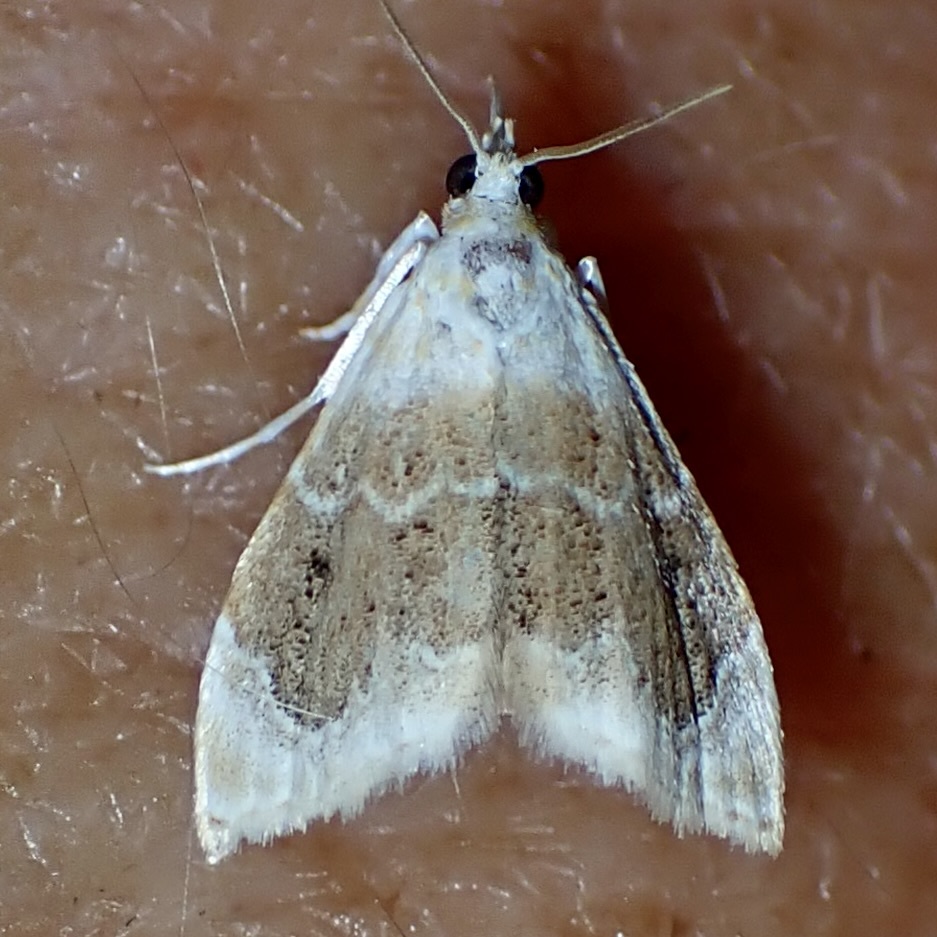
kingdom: Animalia
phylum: Arthropoda
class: Insecta
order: Lepidoptera
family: Crambidae
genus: Lipocosma
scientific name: Lipocosma polingi
